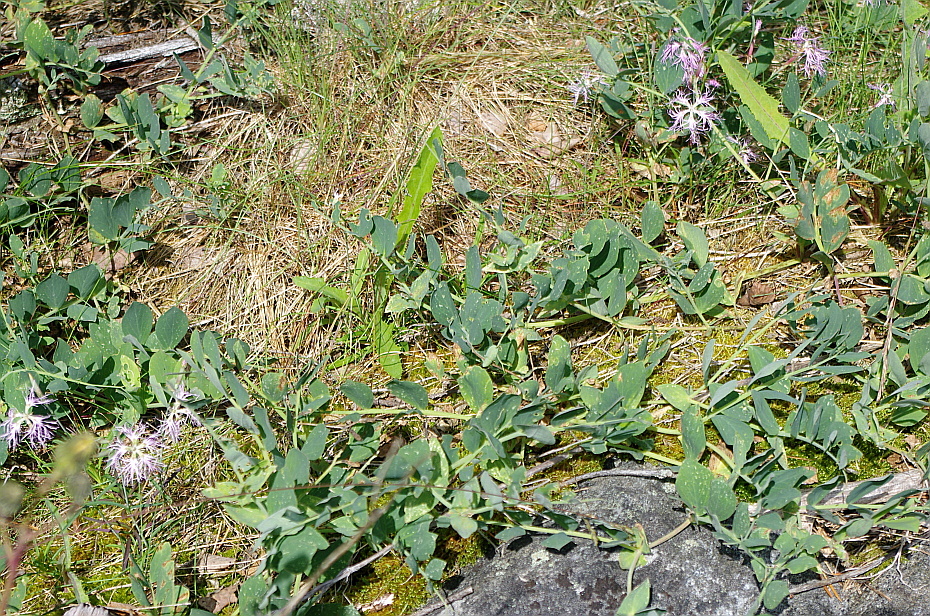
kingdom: Plantae
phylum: Tracheophyta
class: Magnoliopsida
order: Fabales
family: Fabaceae
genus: Lathyrus
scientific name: Lathyrus japonicus
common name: Sea pea
